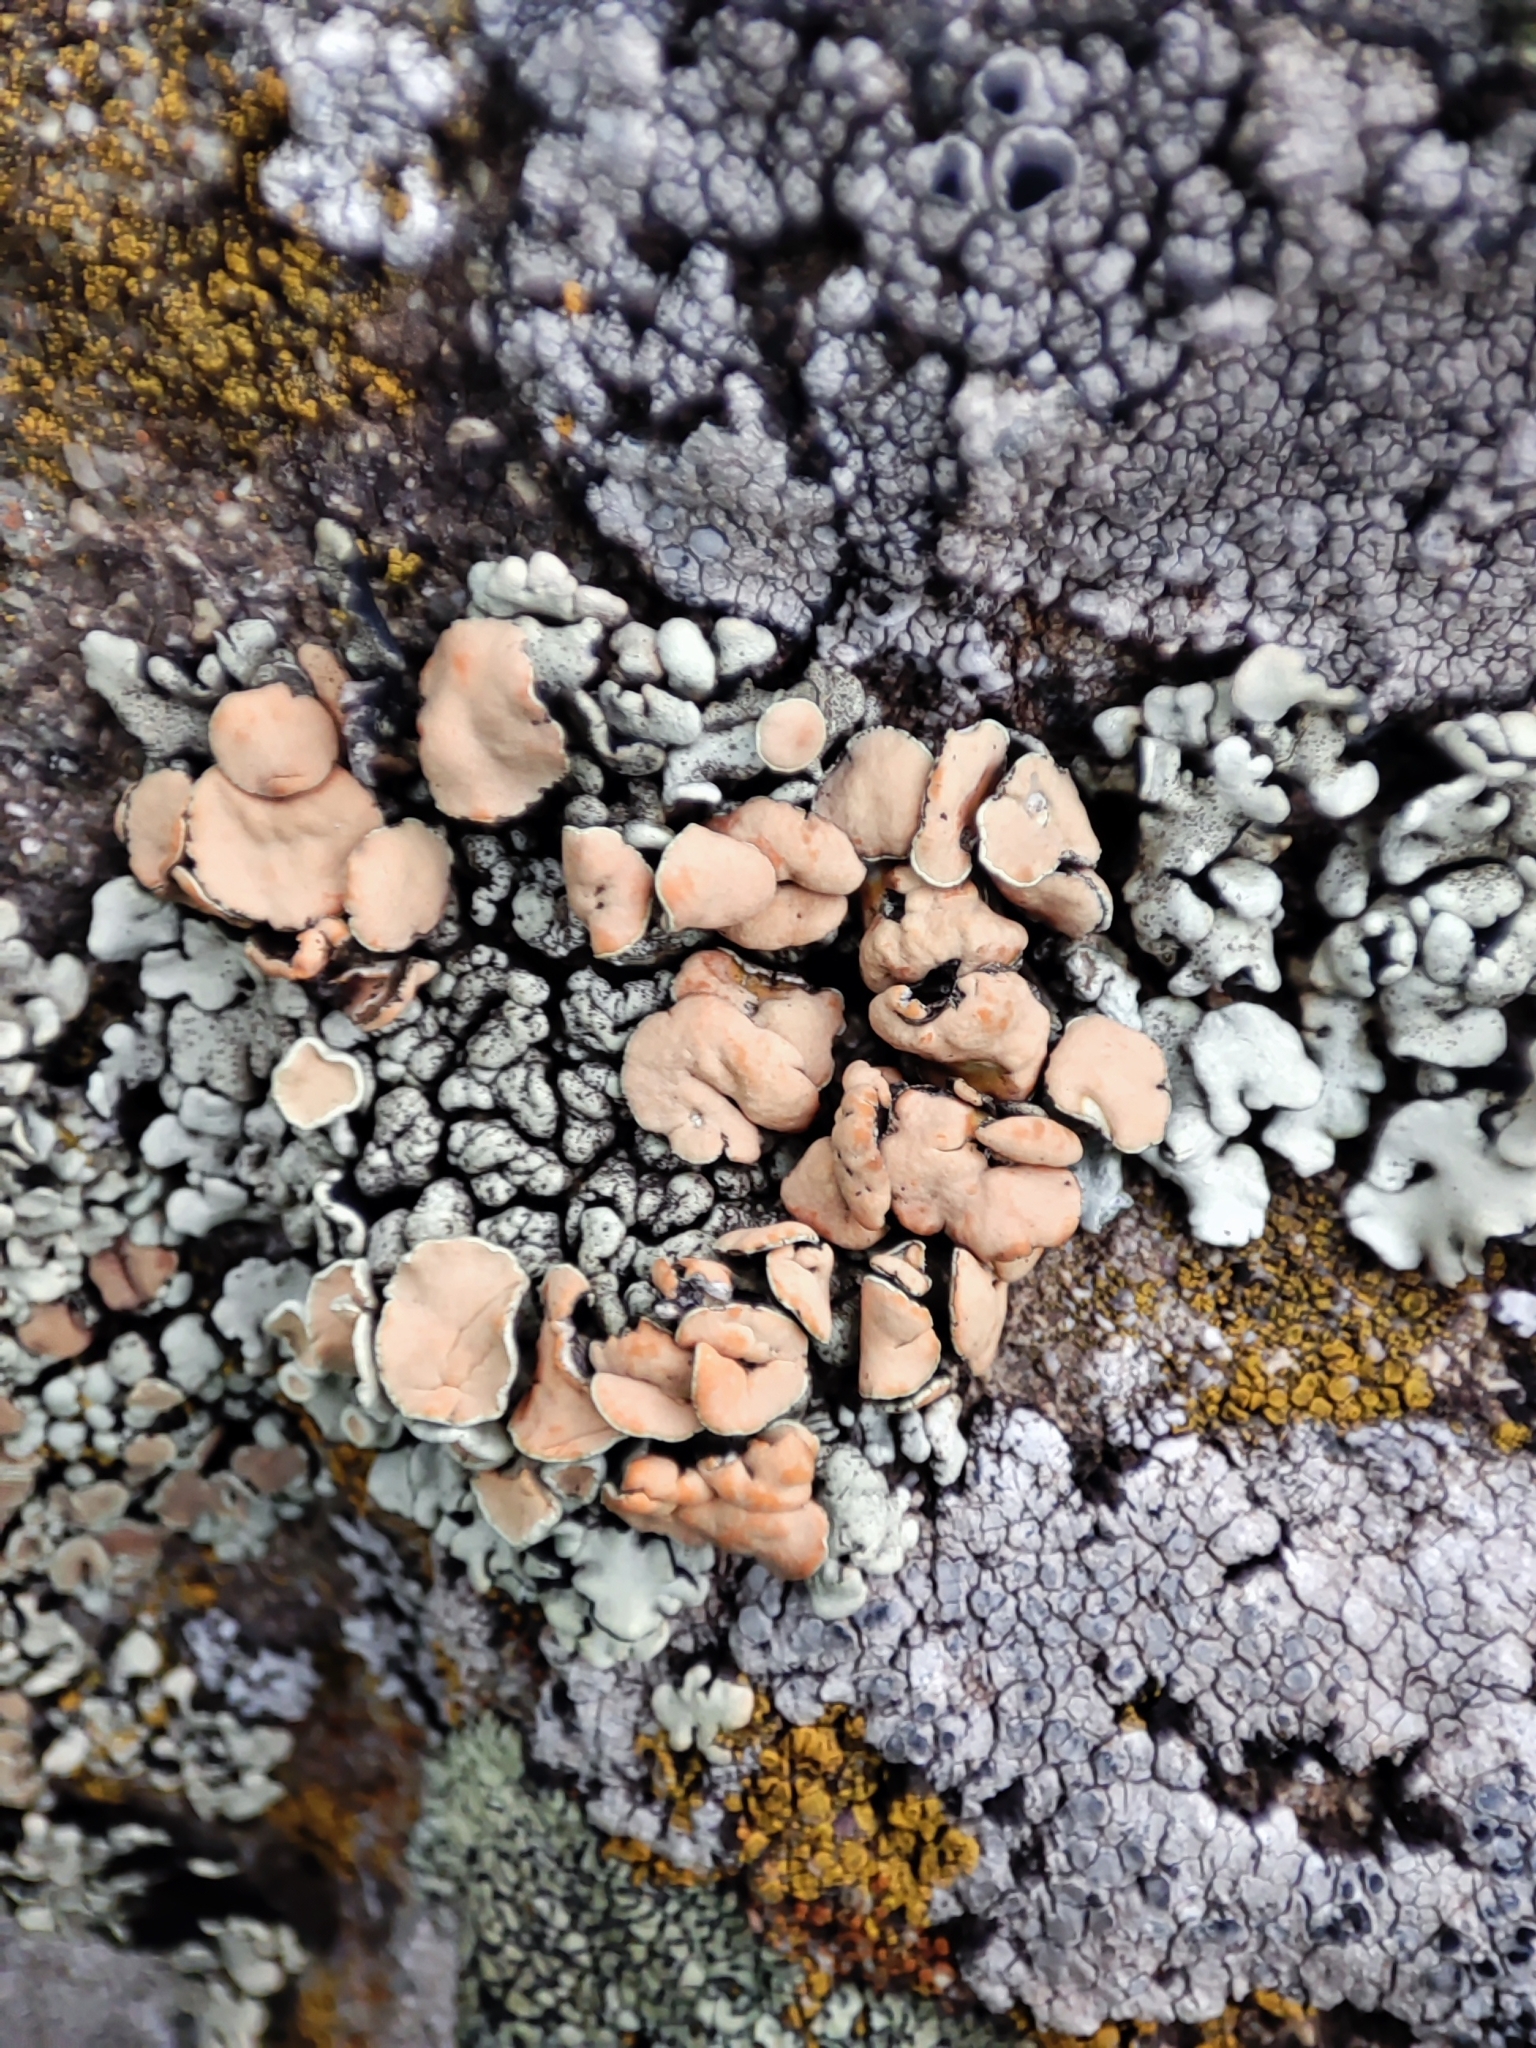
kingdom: Fungi
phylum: Ascomycota
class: Lecanoromycetes
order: Lecanorales
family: Lecanoraceae
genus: Omphalodina
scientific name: Omphalodina chrysoleuca
